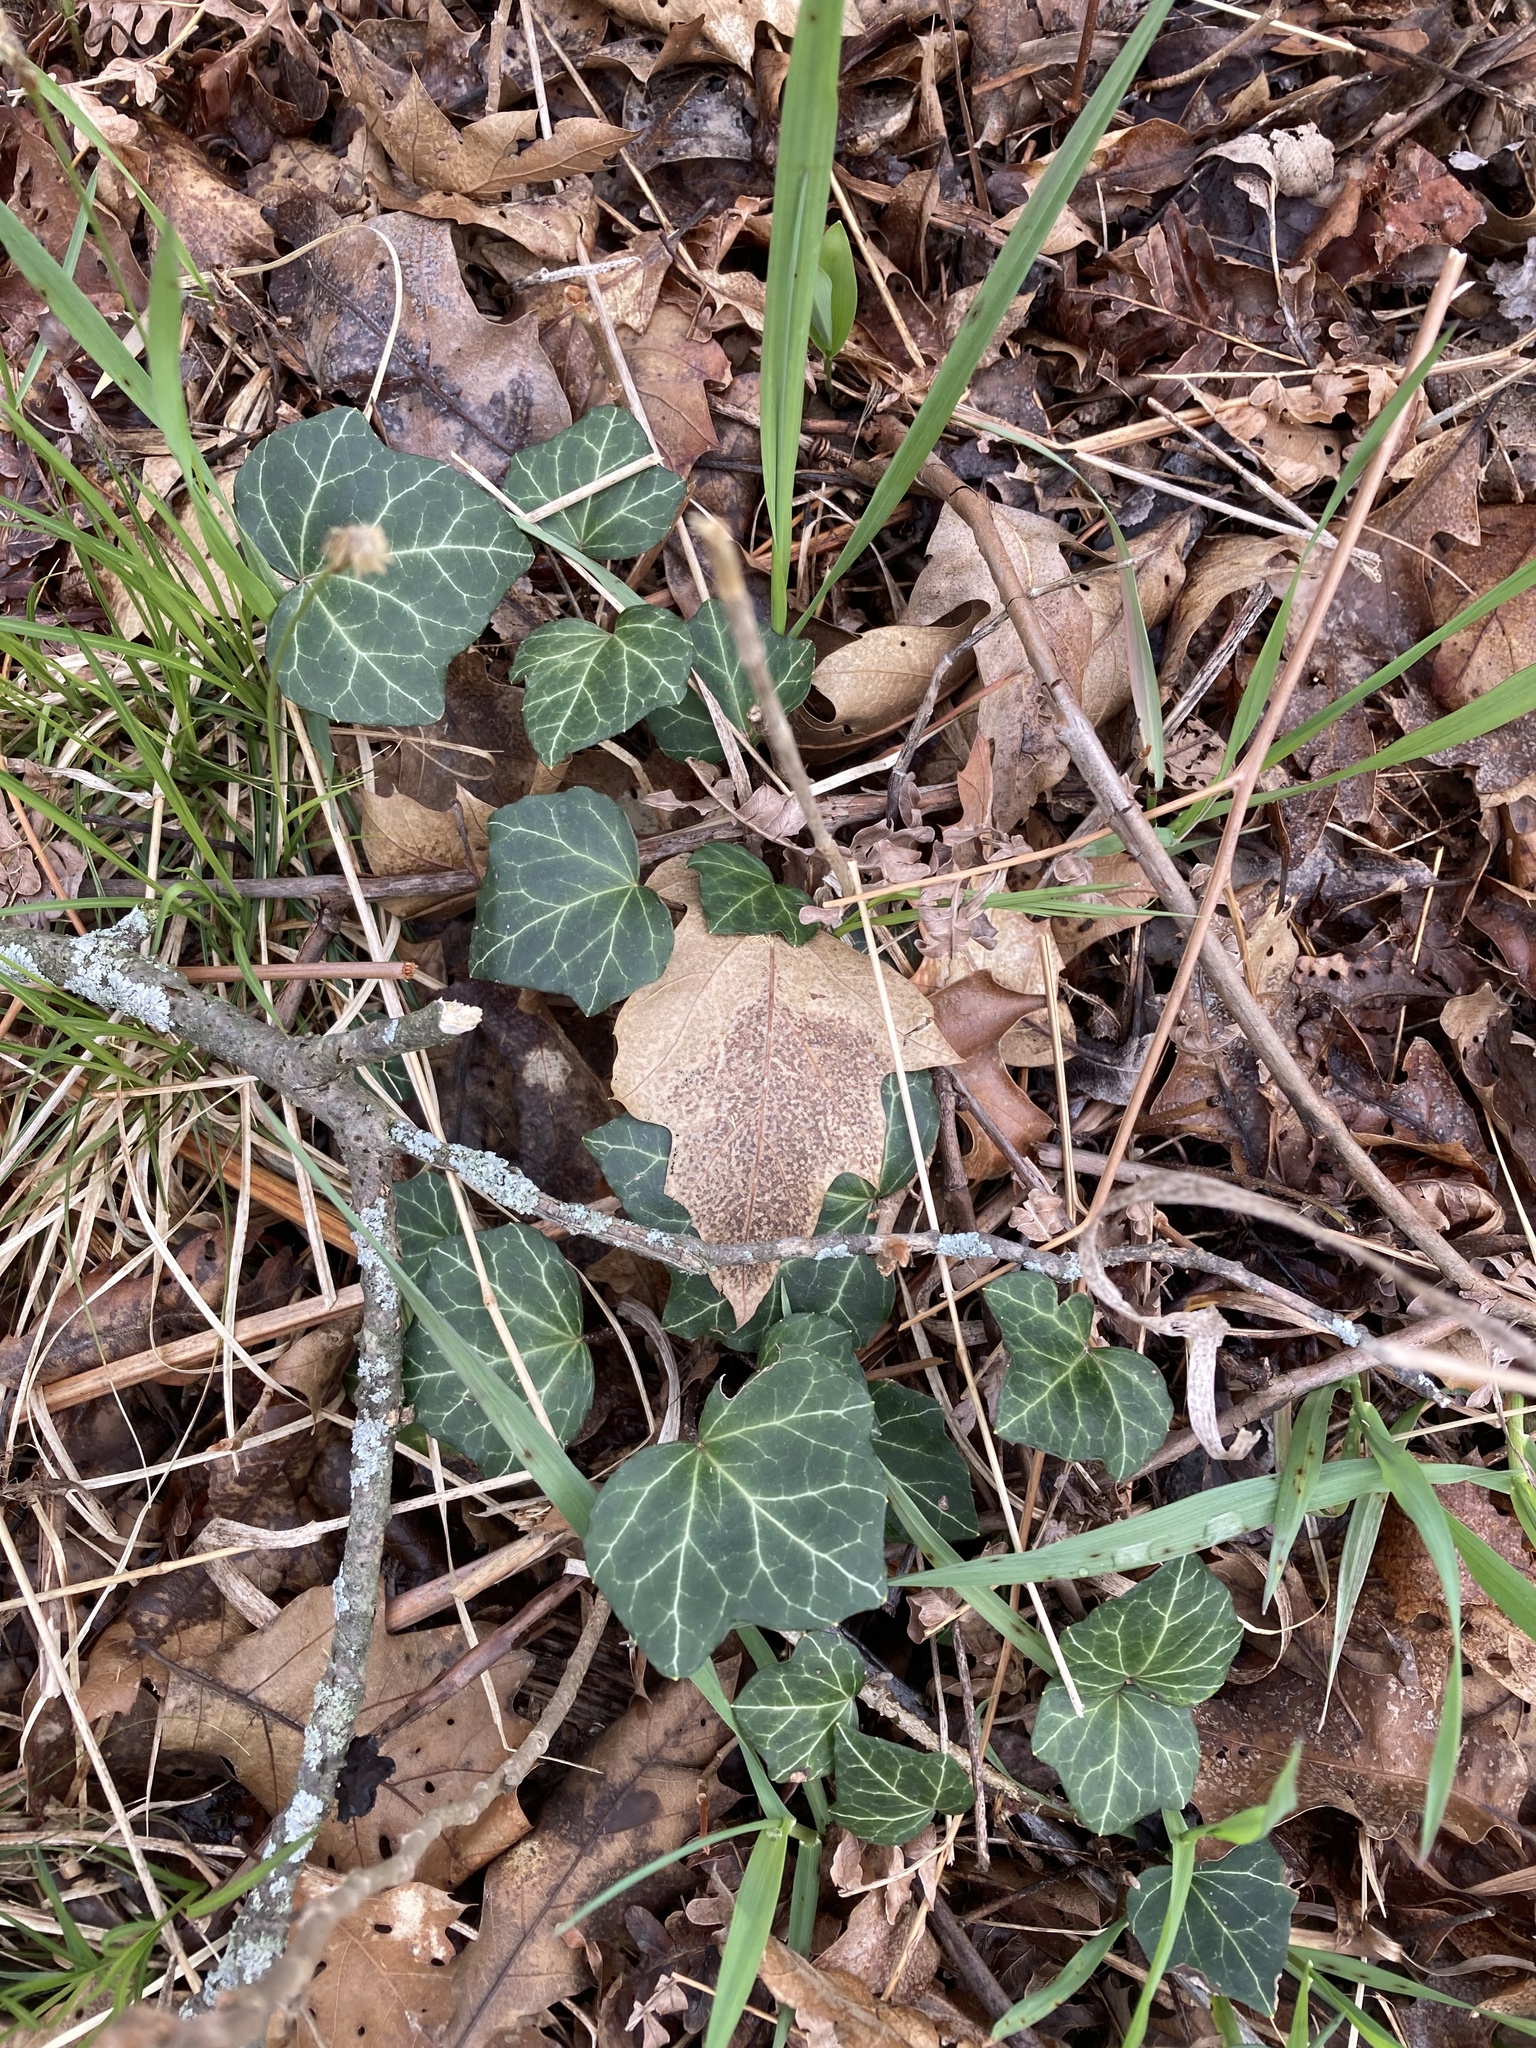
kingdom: Plantae
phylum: Tracheophyta
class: Magnoliopsida
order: Apiales
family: Araliaceae
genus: Hedera
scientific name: Hedera helix
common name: Ivy
